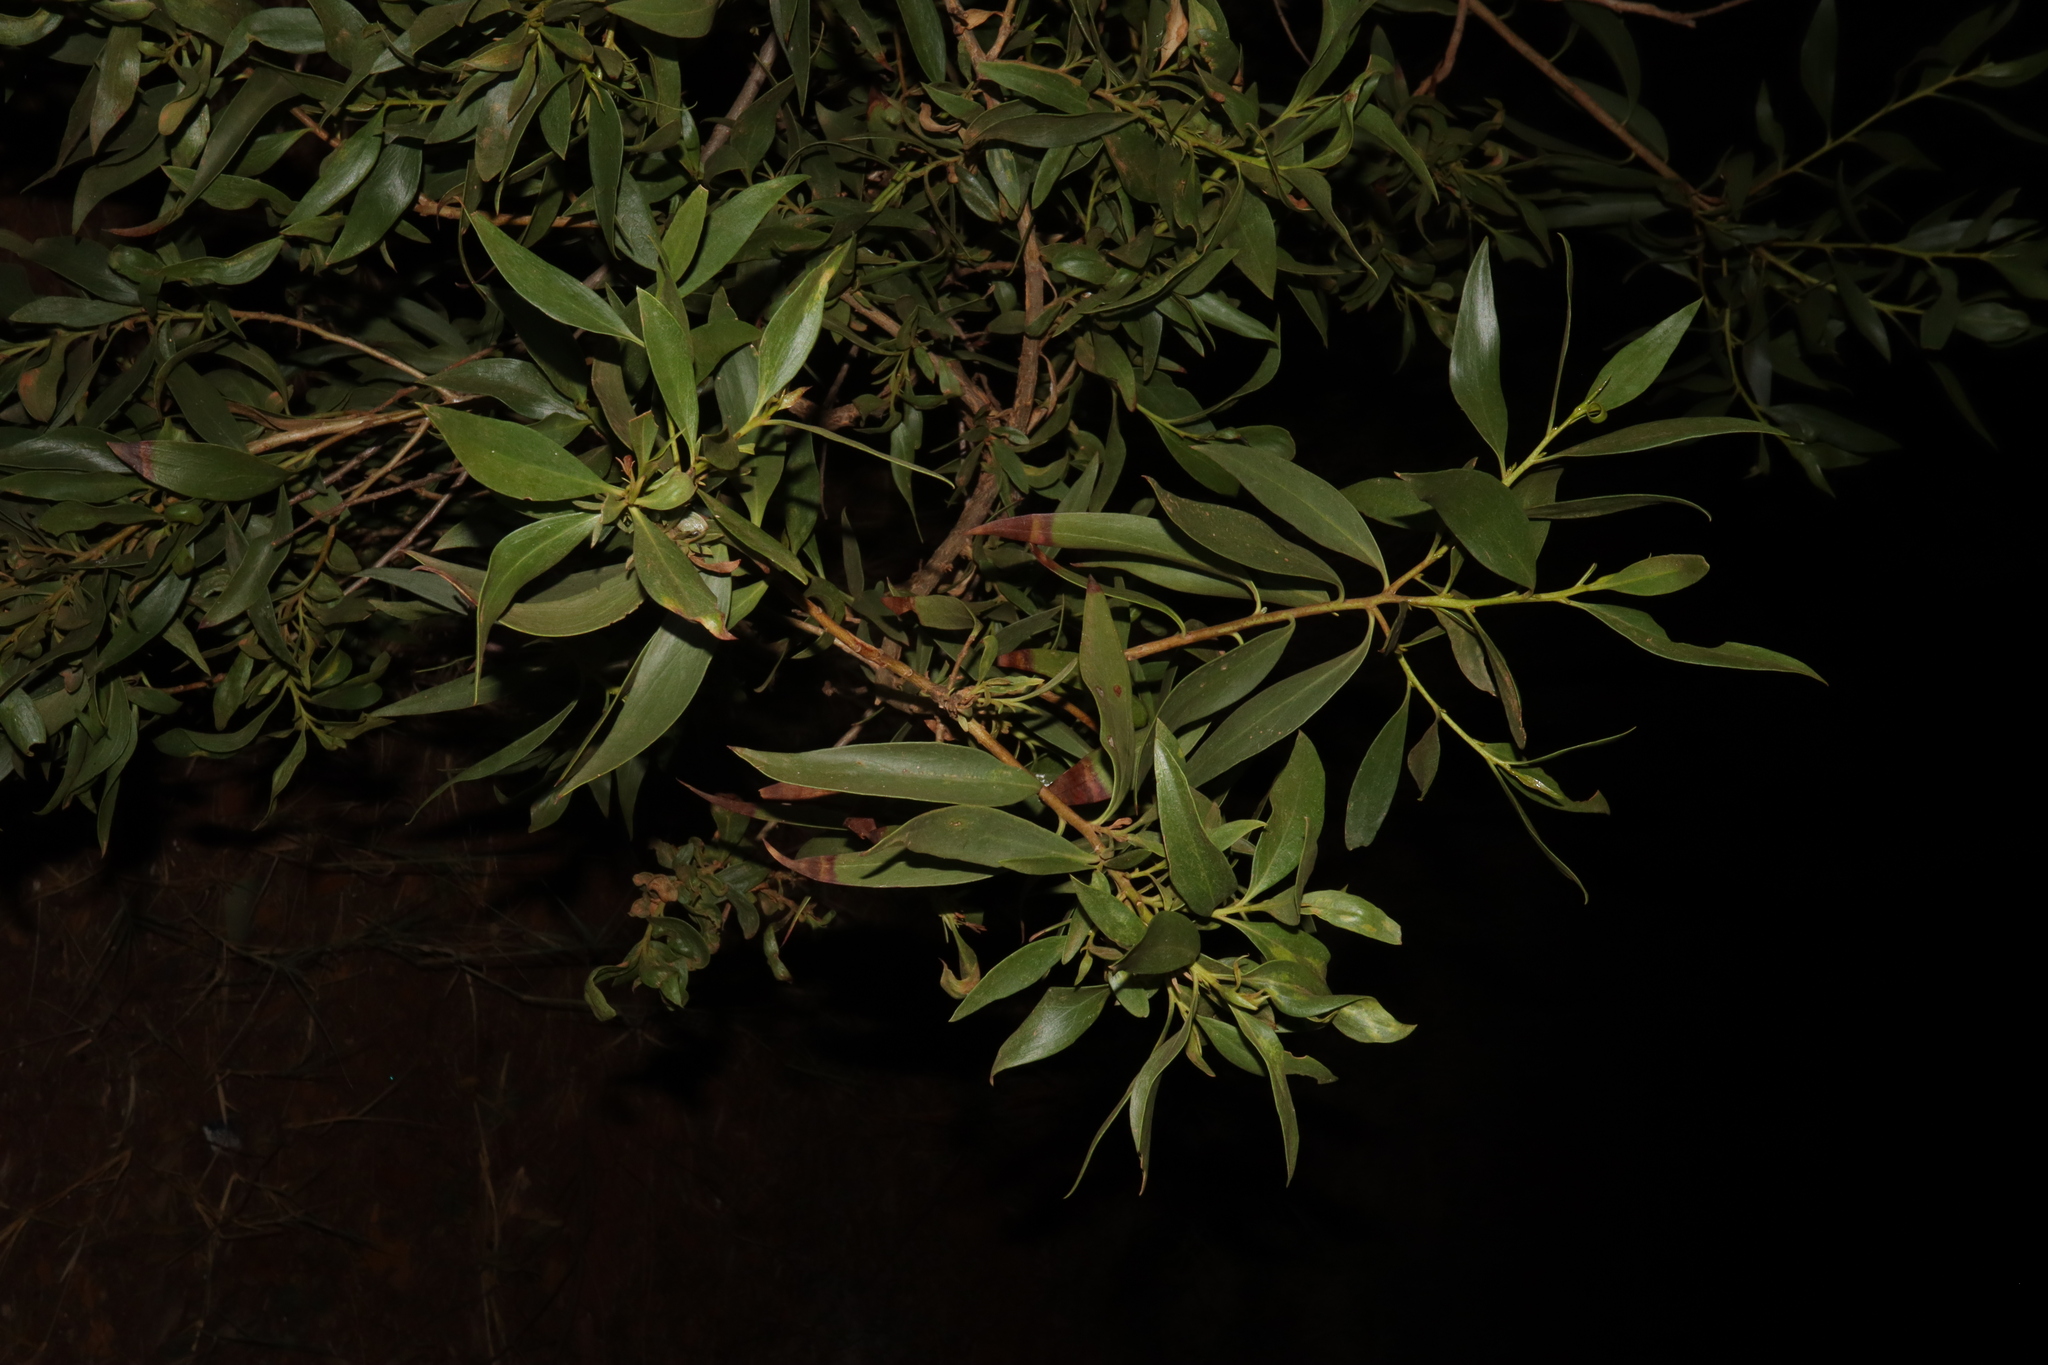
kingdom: Plantae
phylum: Tracheophyta
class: Magnoliopsida
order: Lamiales
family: Scrophulariaceae
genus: Myoporum
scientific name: Myoporum montanum
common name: Waterbush
